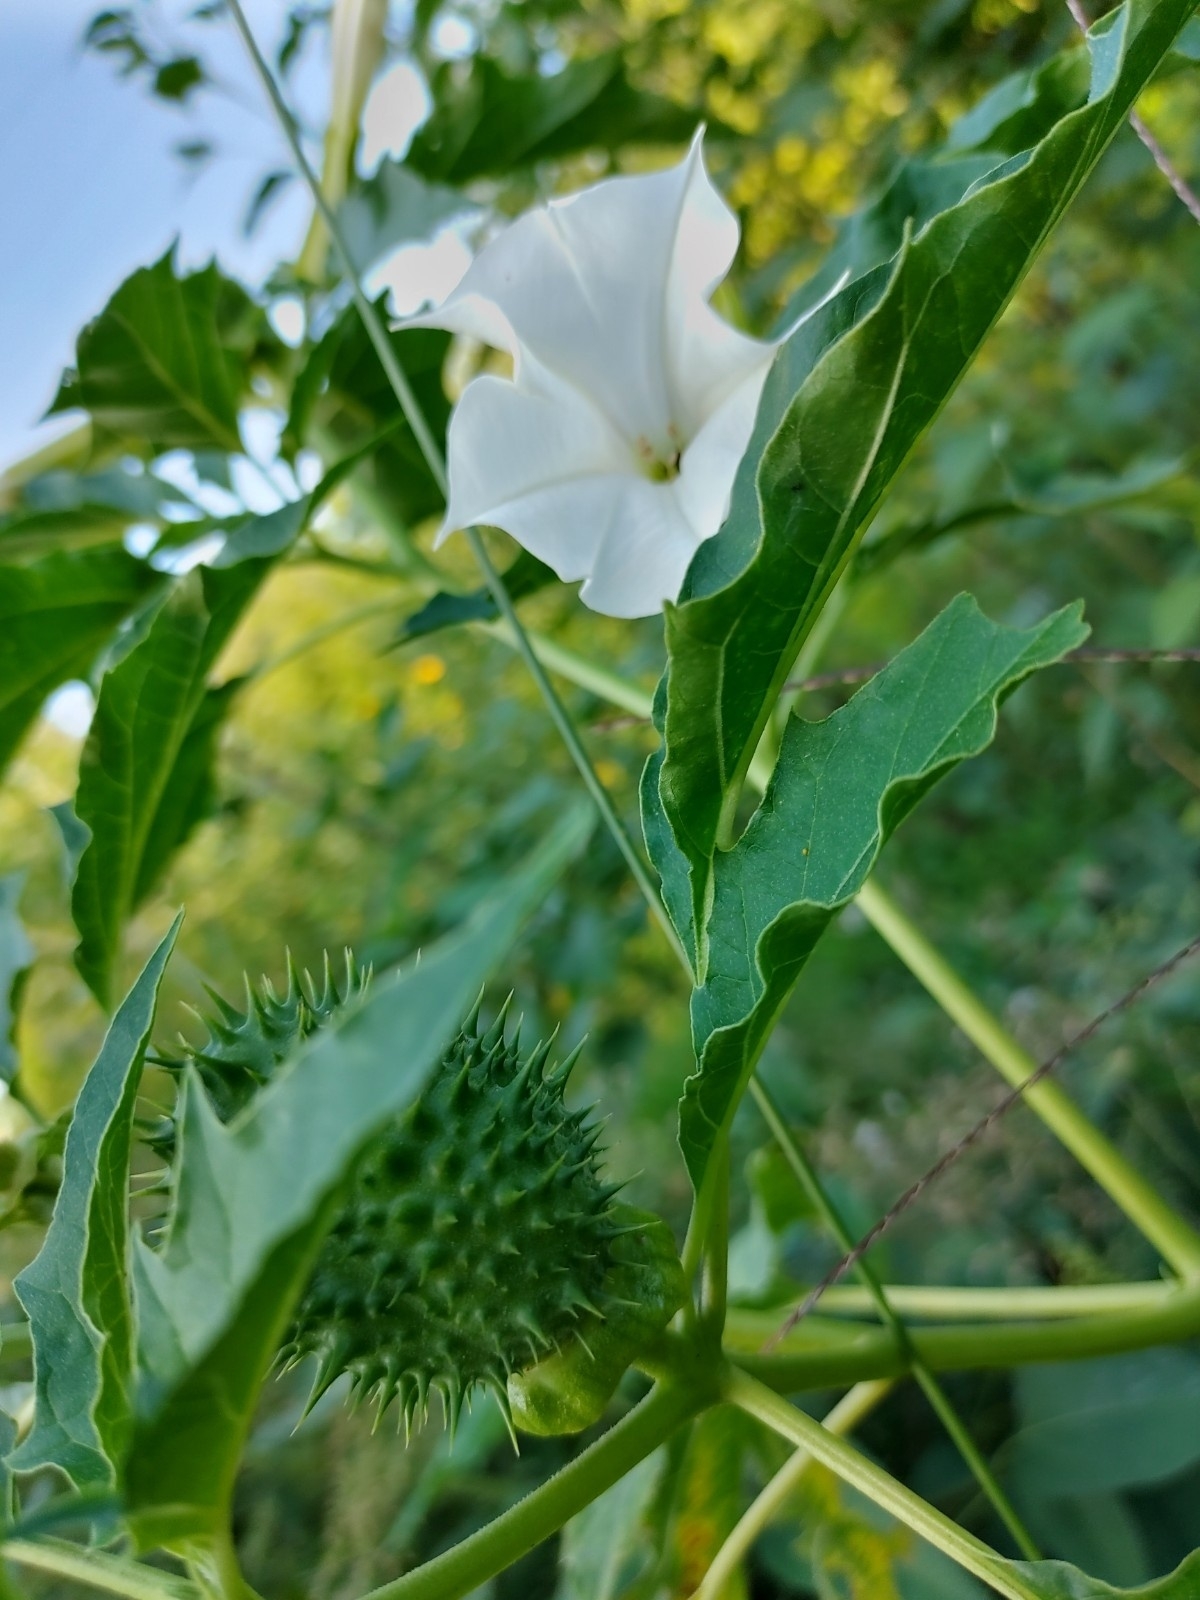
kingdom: Plantae
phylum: Tracheophyta
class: Magnoliopsida
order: Solanales
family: Solanaceae
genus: Datura
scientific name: Datura stramonium
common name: Thorn-apple
